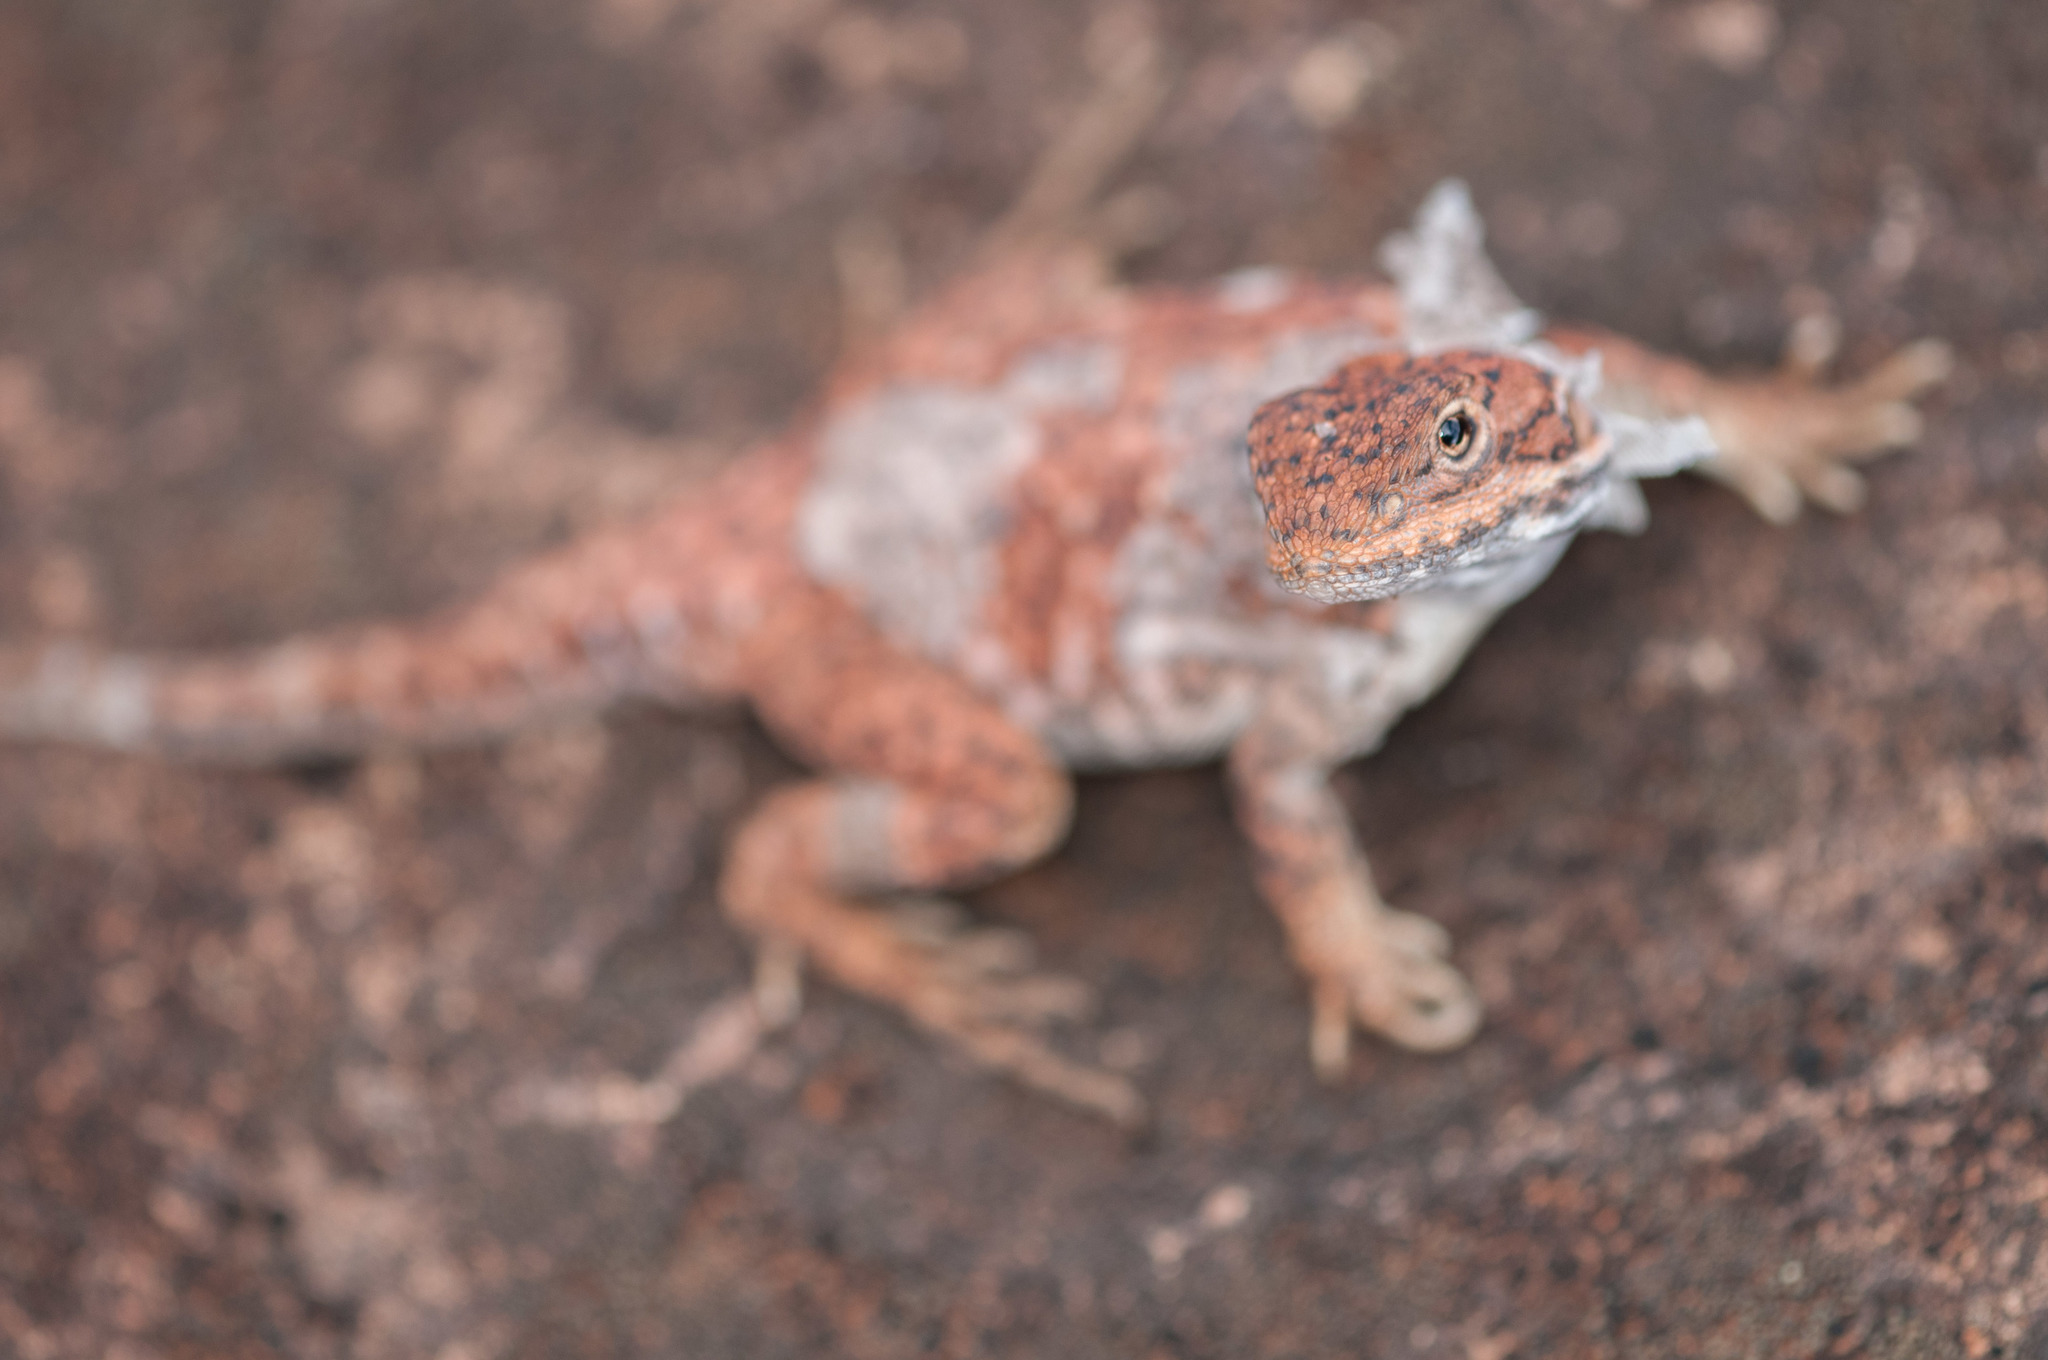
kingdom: Animalia
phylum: Chordata
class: Squamata
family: Agamidae
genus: Ctenophorus
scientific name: Ctenophorus fionni
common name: Peninsula crevis-dragon
